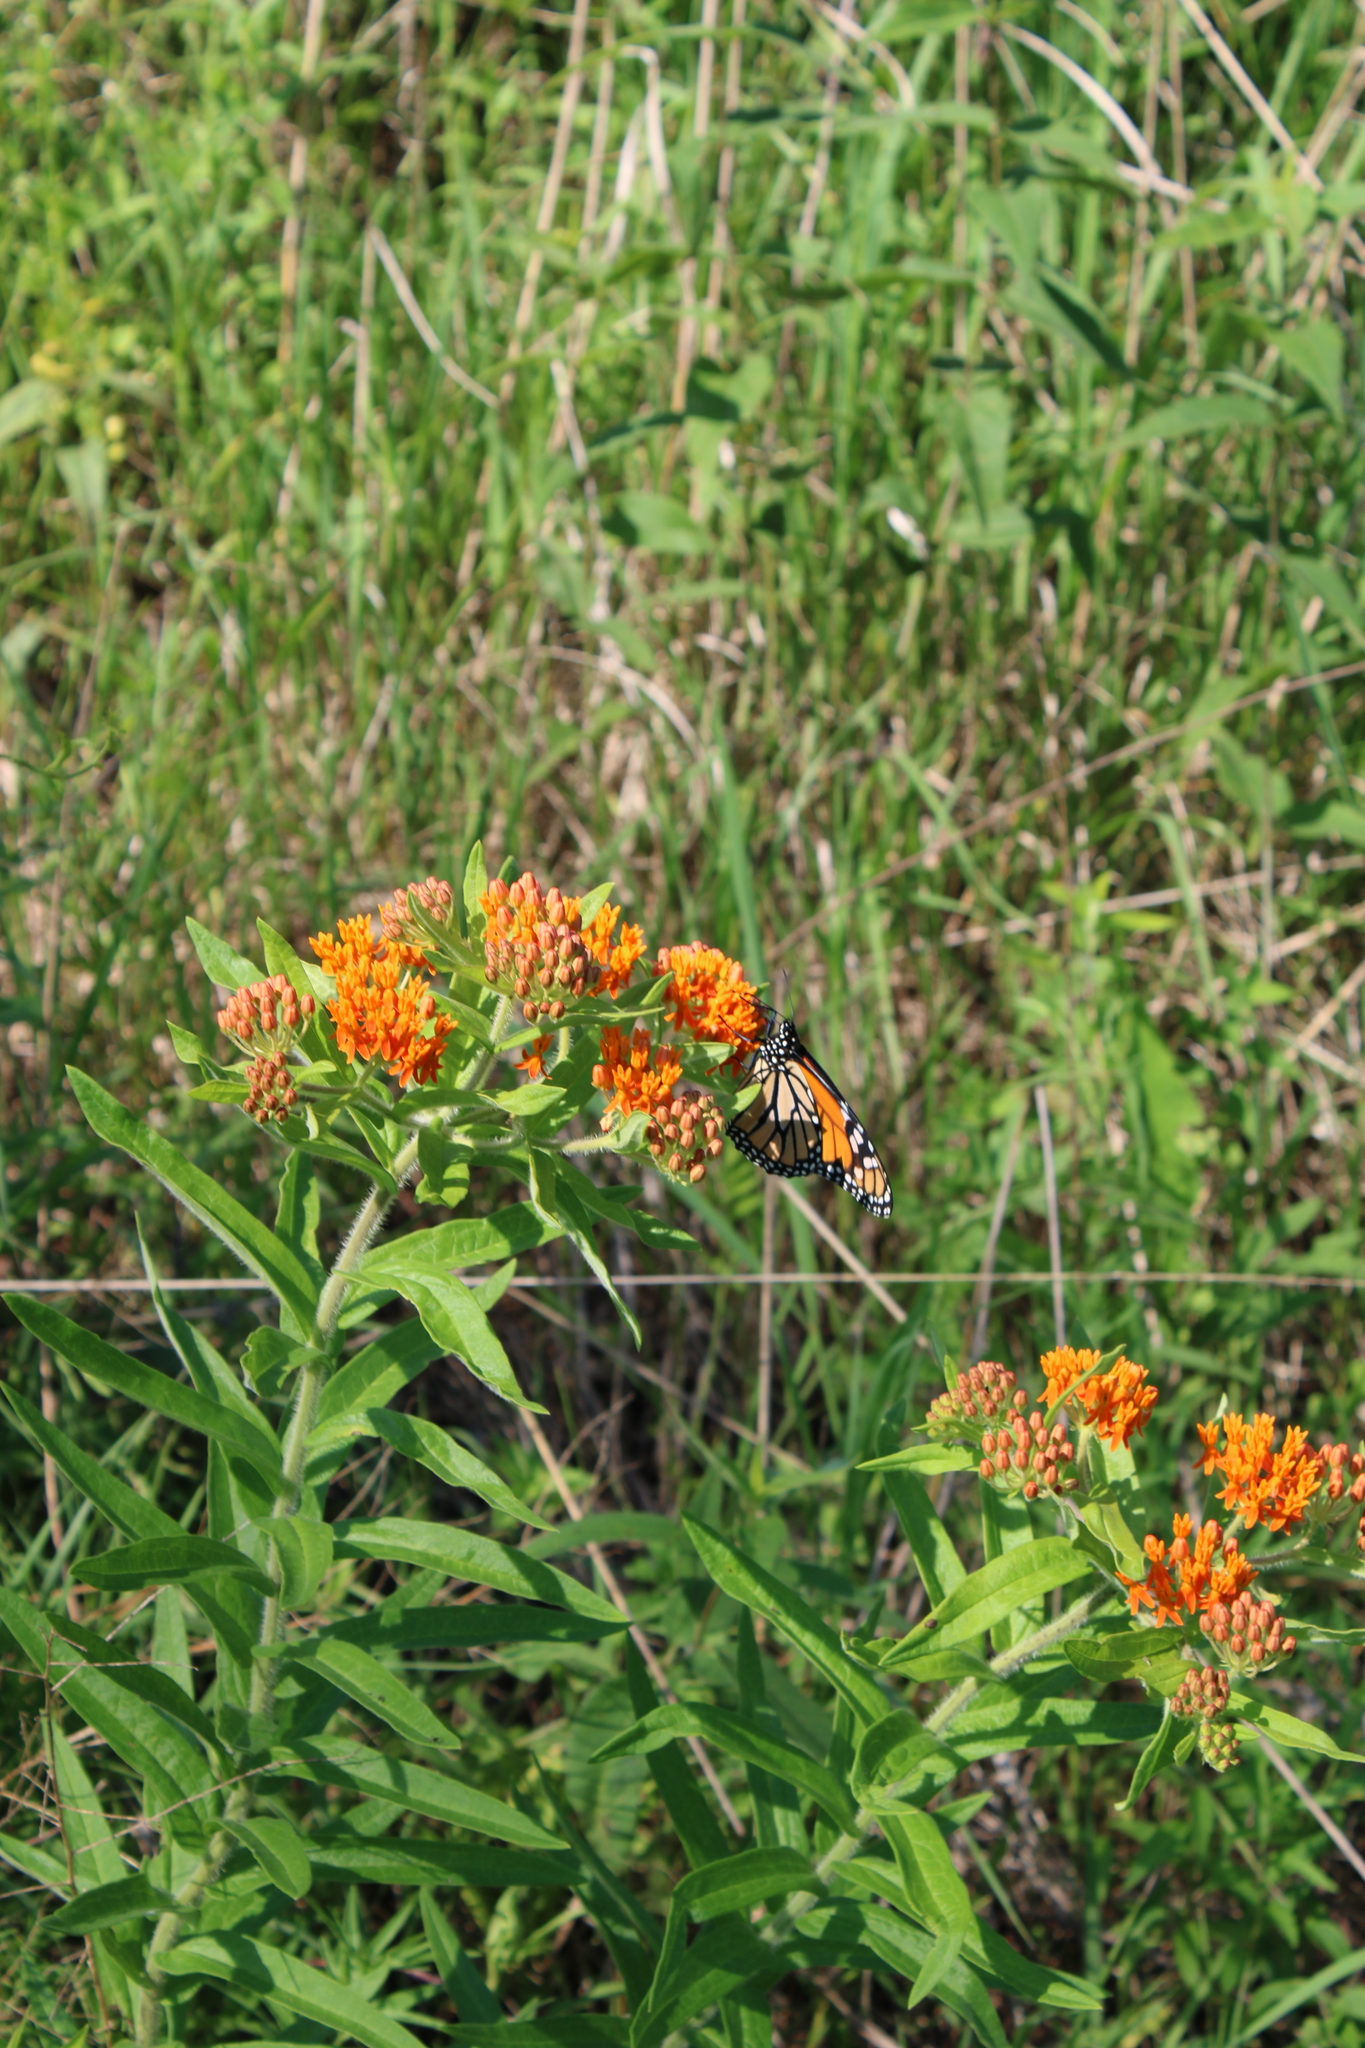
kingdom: Plantae
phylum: Tracheophyta
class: Magnoliopsida
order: Gentianales
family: Apocynaceae
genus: Asclepias
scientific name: Asclepias tuberosa
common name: Butterfly milkweed
